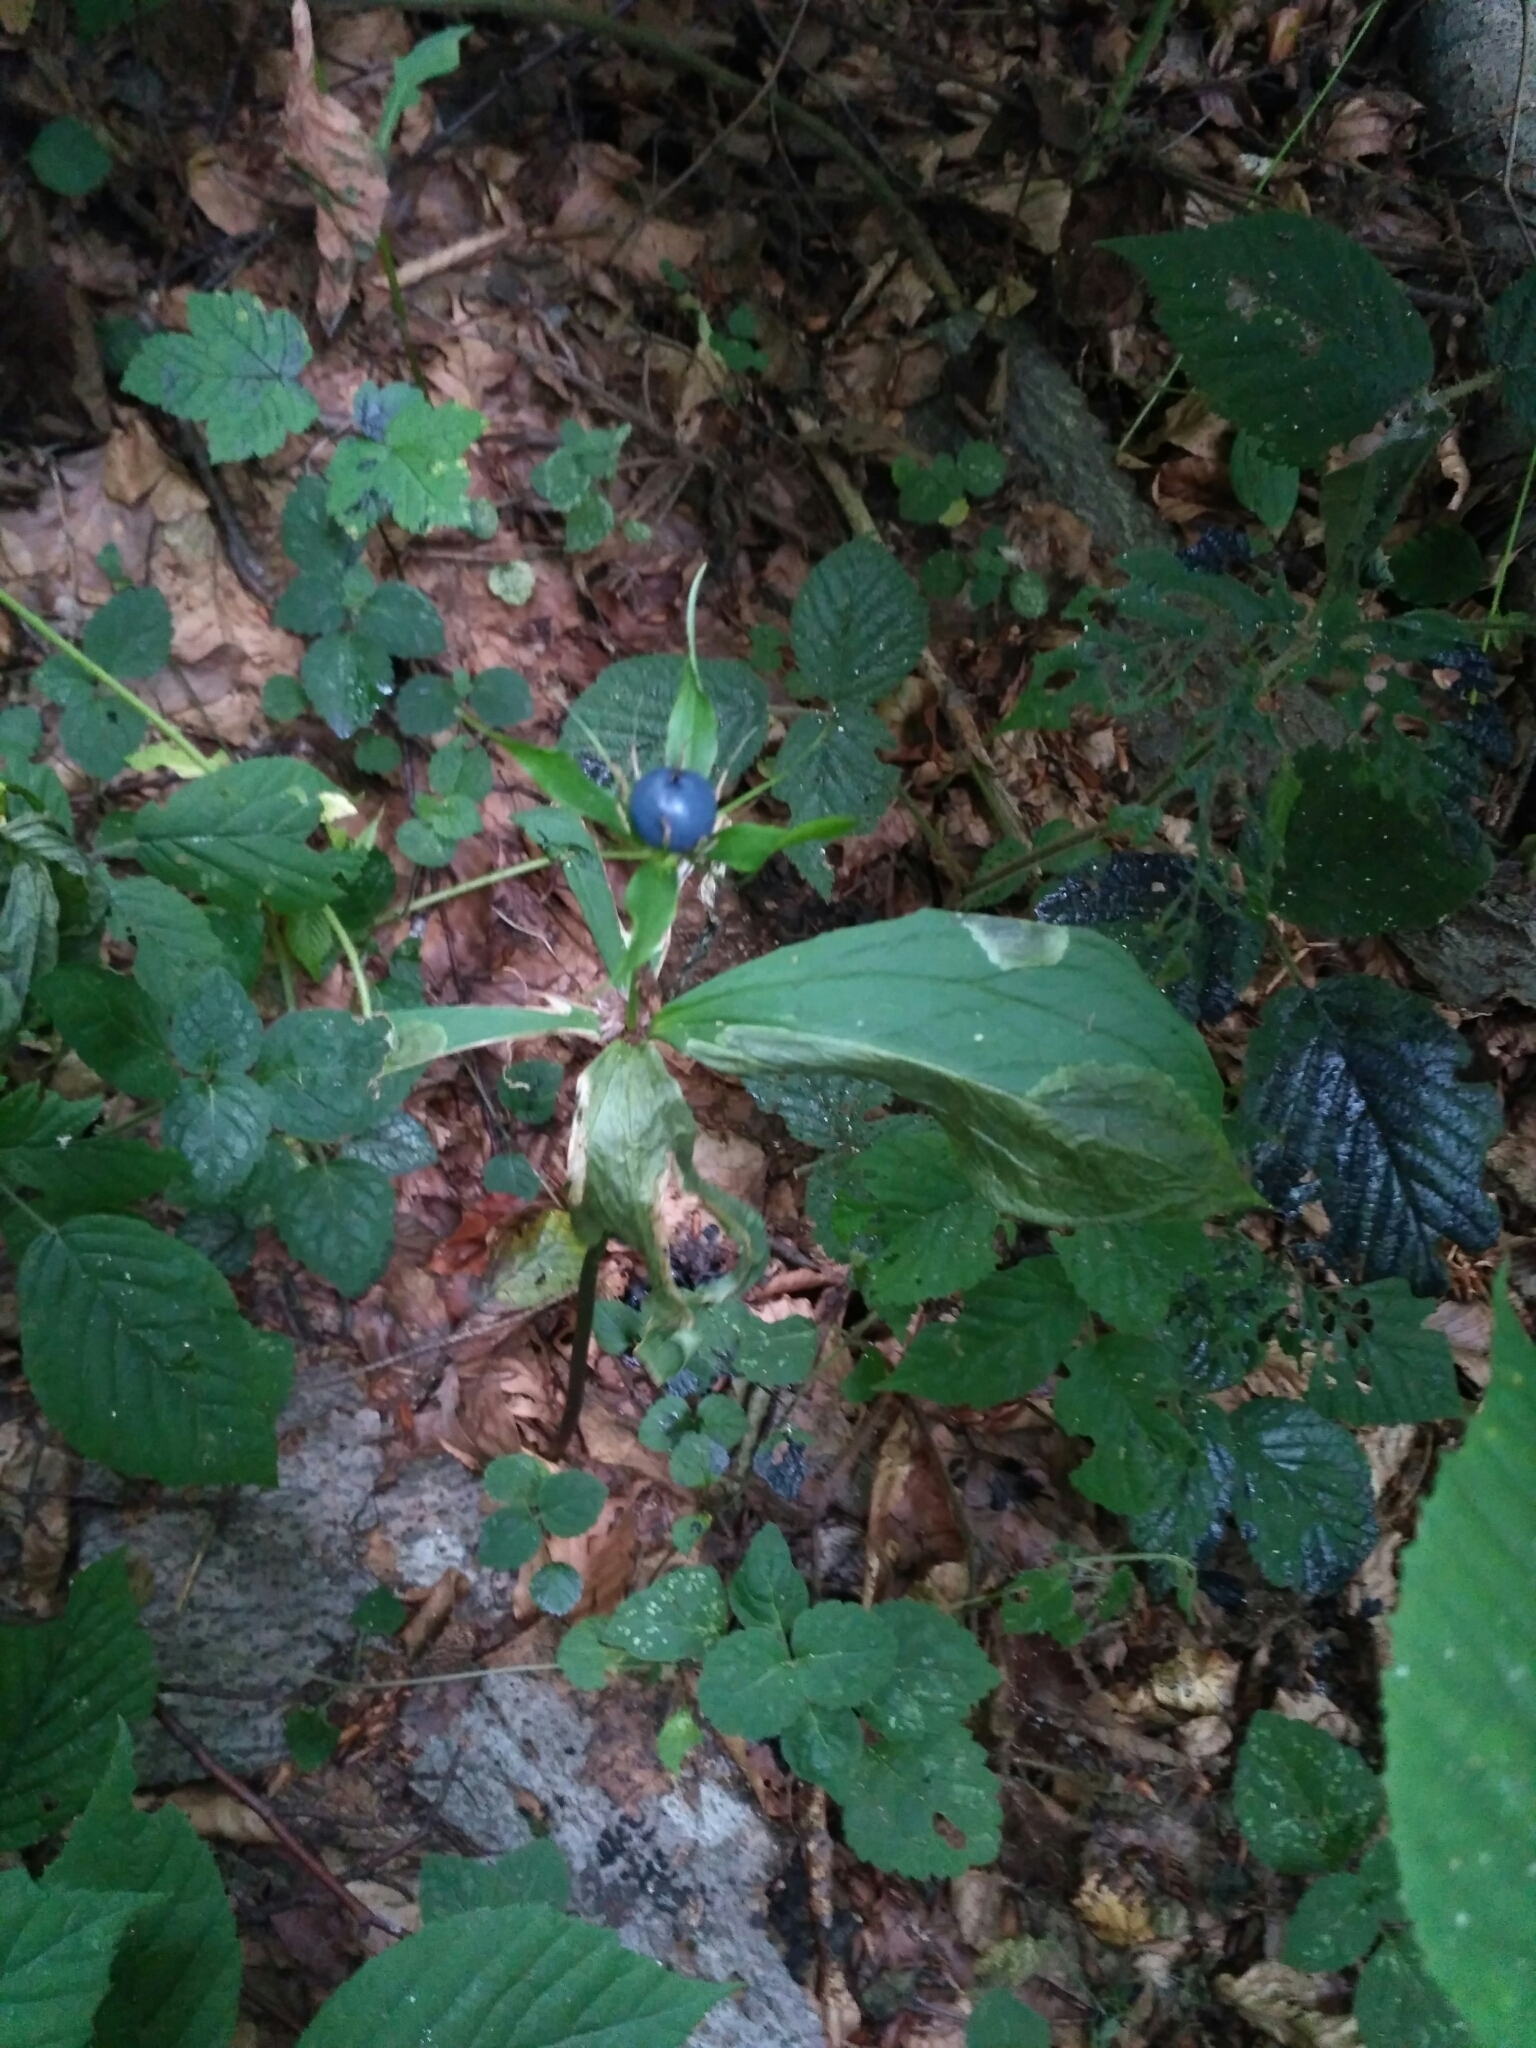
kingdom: Plantae
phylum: Tracheophyta
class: Liliopsida
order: Liliales
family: Melanthiaceae
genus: Paris
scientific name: Paris quadrifolia
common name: Herb-paris
